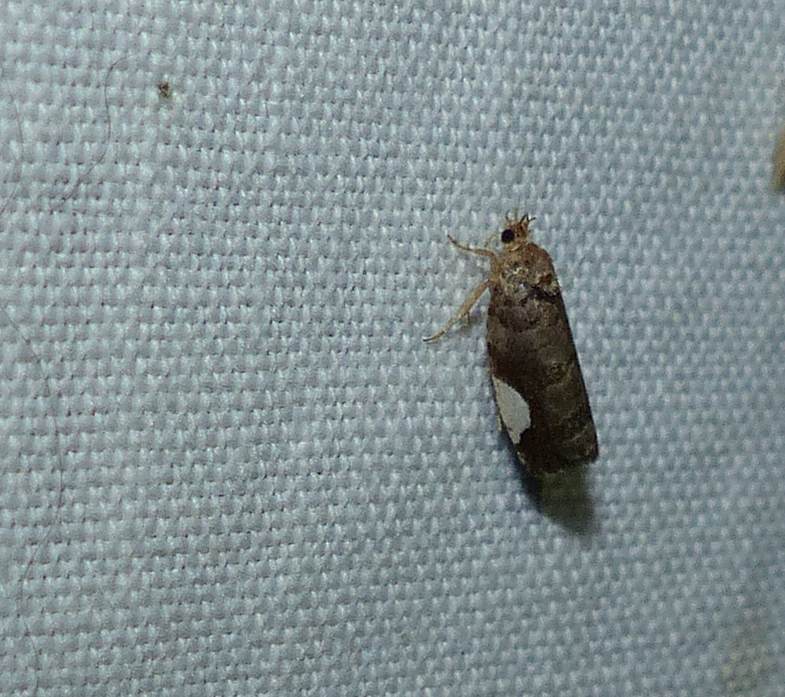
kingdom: Animalia
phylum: Arthropoda
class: Insecta
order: Lepidoptera
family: Tortricidae
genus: Hedya
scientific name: Hedya chionosema
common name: White-spotted hedya moth
